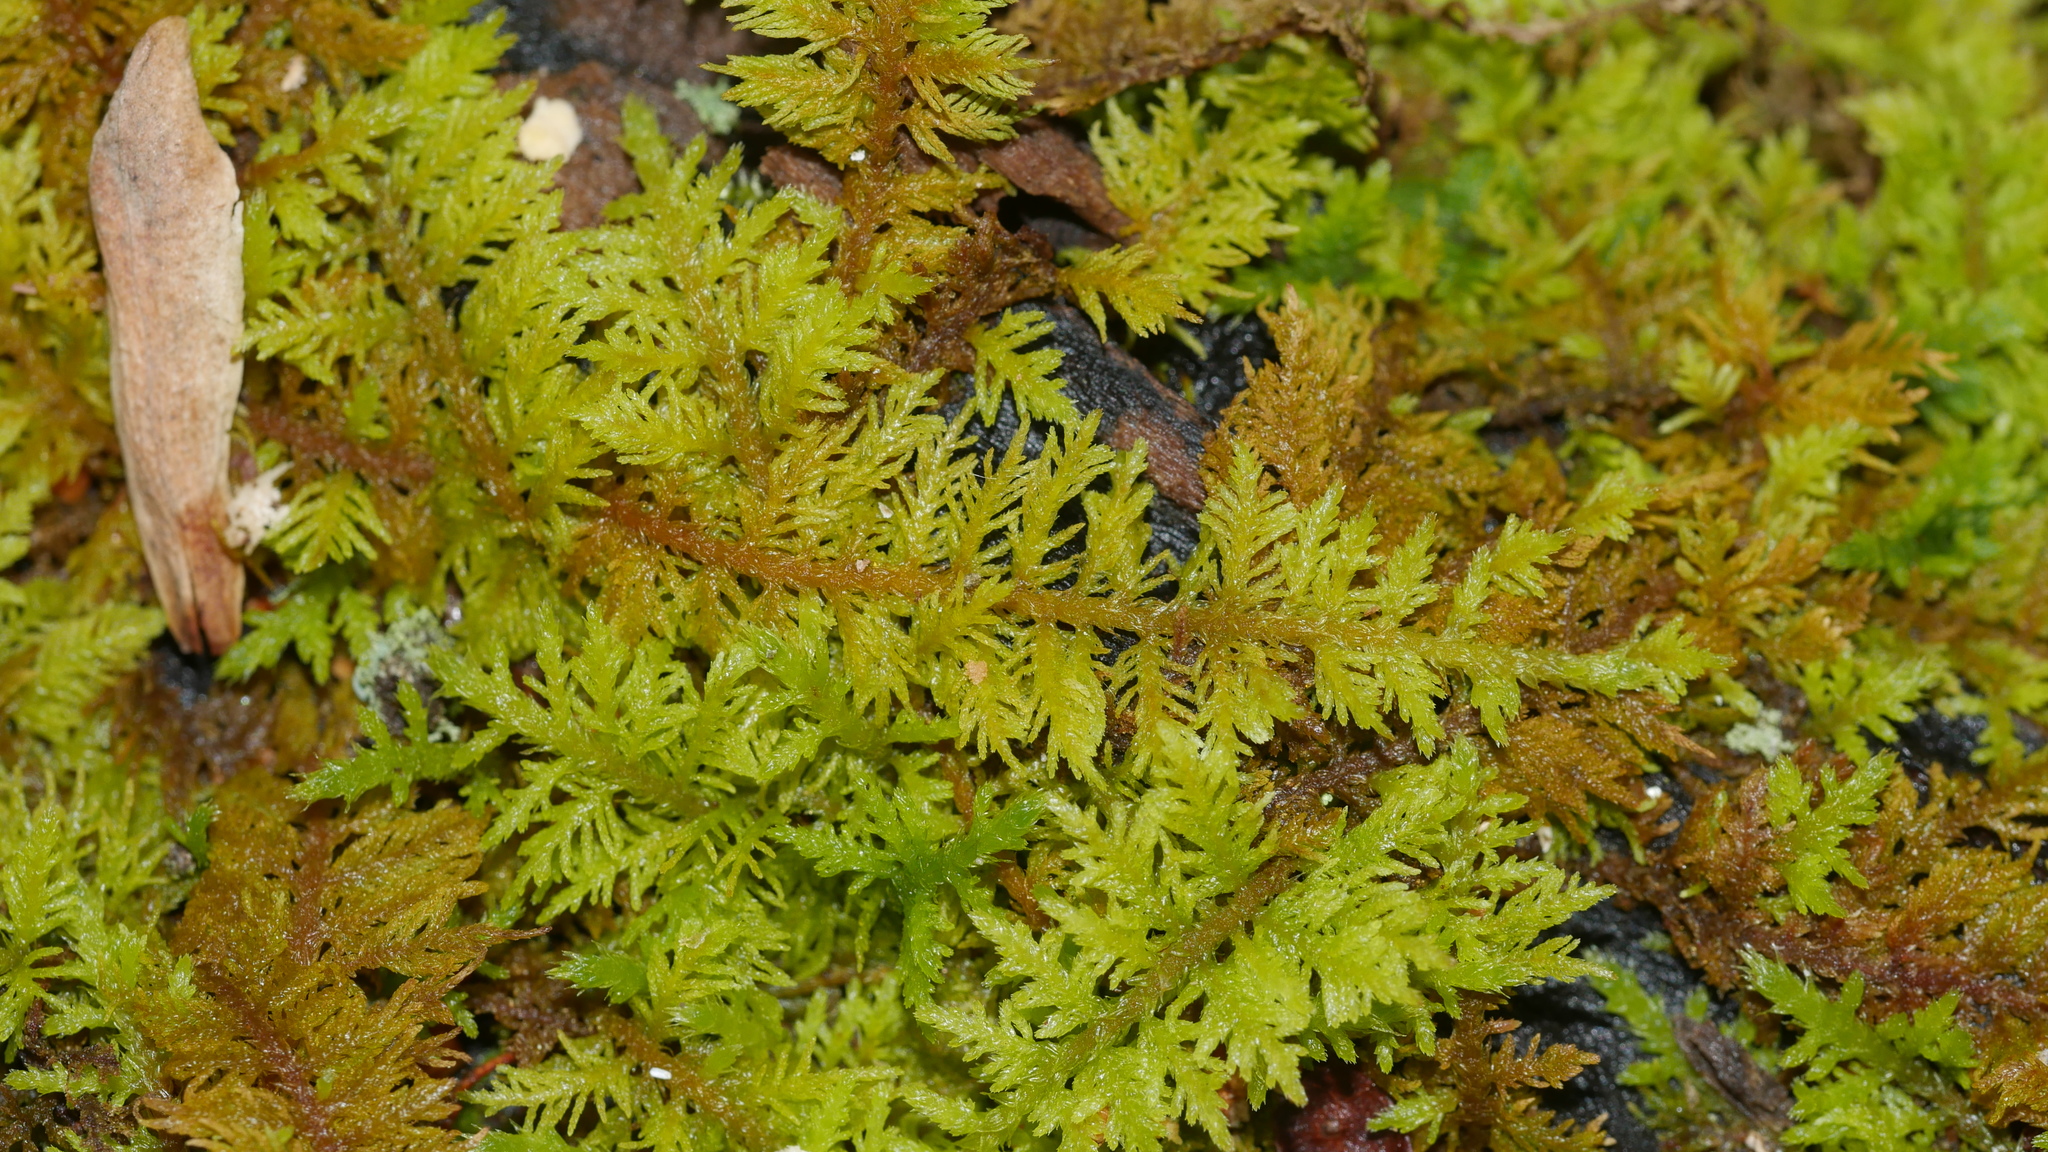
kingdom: Plantae
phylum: Bryophyta
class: Bryopsida
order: Hypnales
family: Thuidiaceae
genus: Thuidium
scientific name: Thuidium delicatulum
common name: Delicate fern moss
